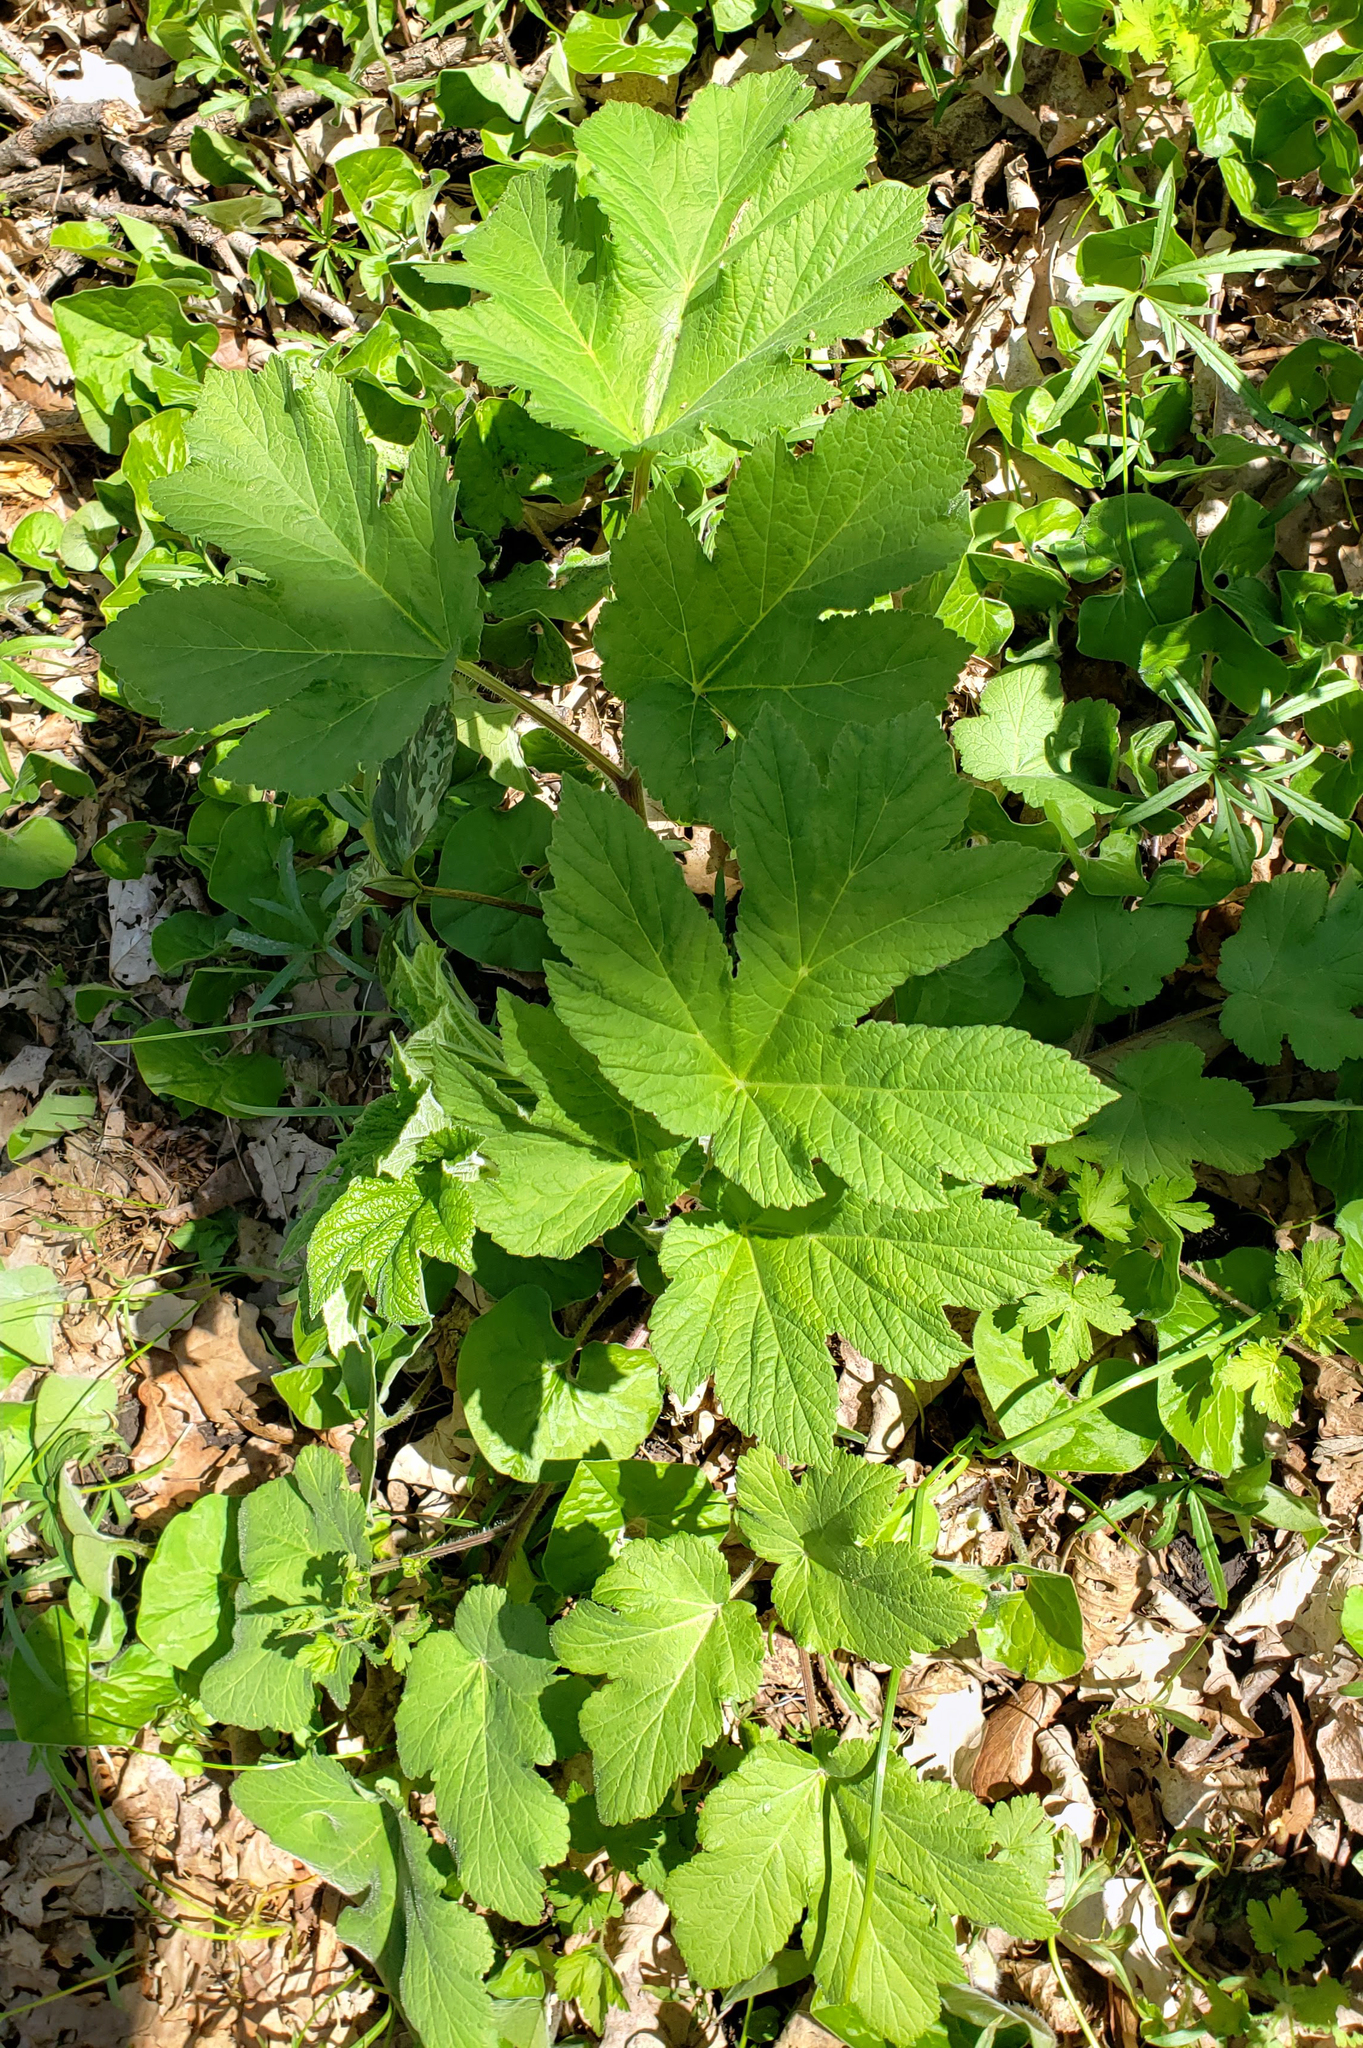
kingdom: Plantae
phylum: Tracheophyta
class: Magnoliopsida
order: Apiales
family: Apiaceae
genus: Heracleum
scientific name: Heracleum maximum
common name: American cow parsnip
